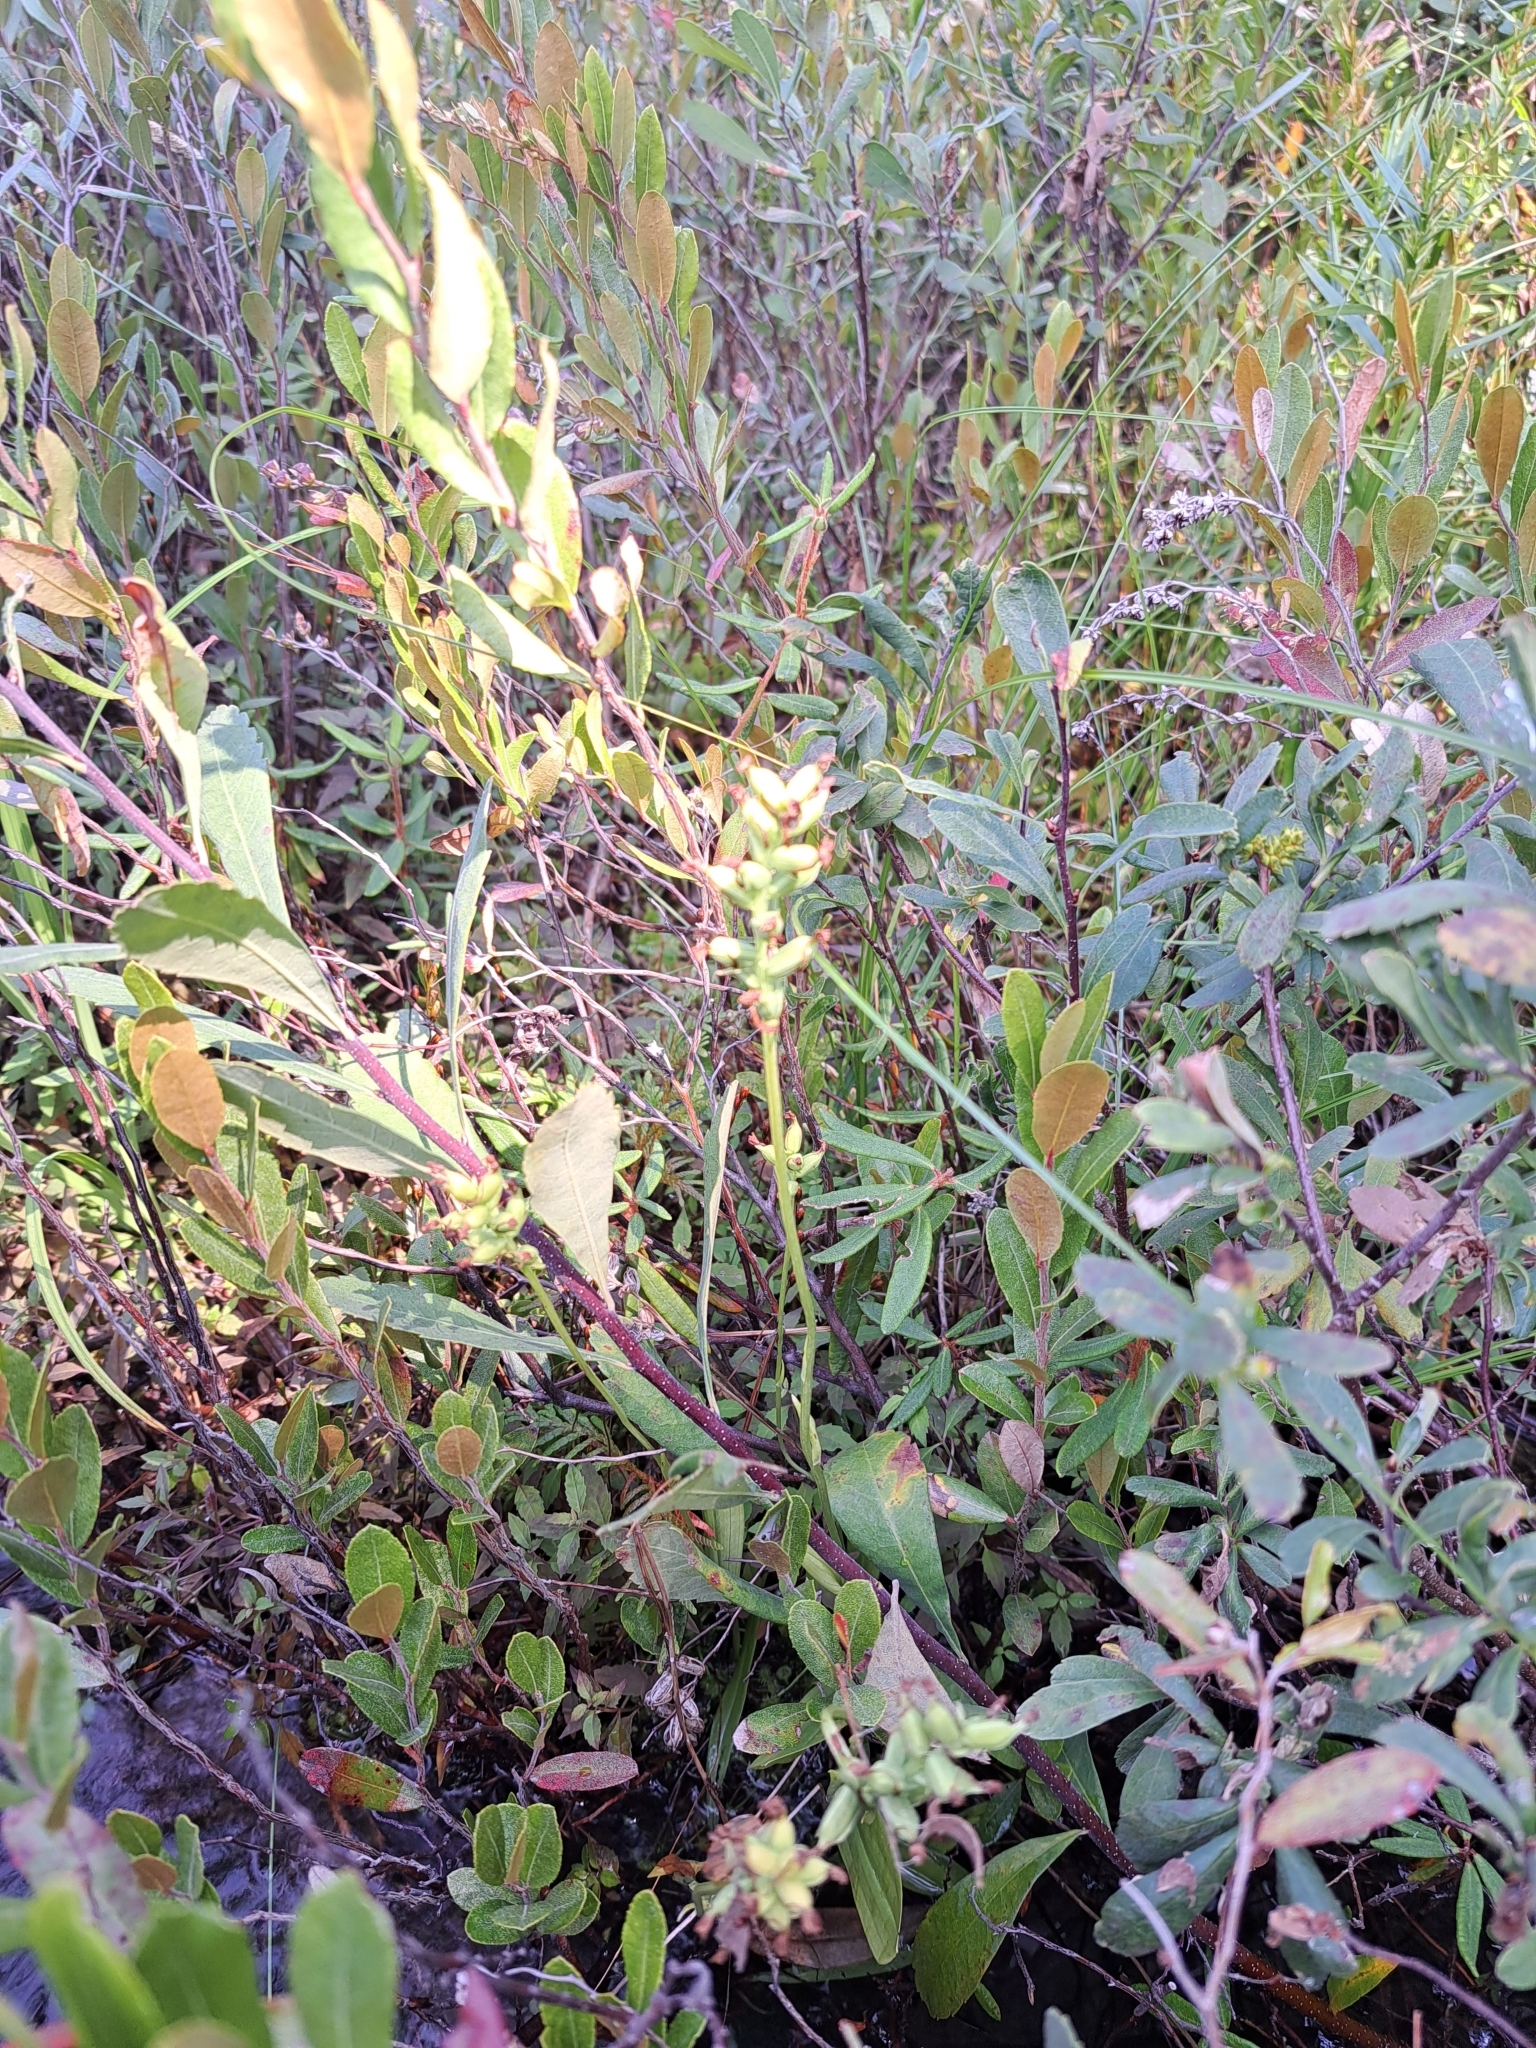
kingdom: Plantae
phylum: Tracheophyta
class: Liliopsida
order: Asparagales
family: Orchidaceae
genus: Platanthera
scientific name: Platanthera clavellata
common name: Club-spur orchid
